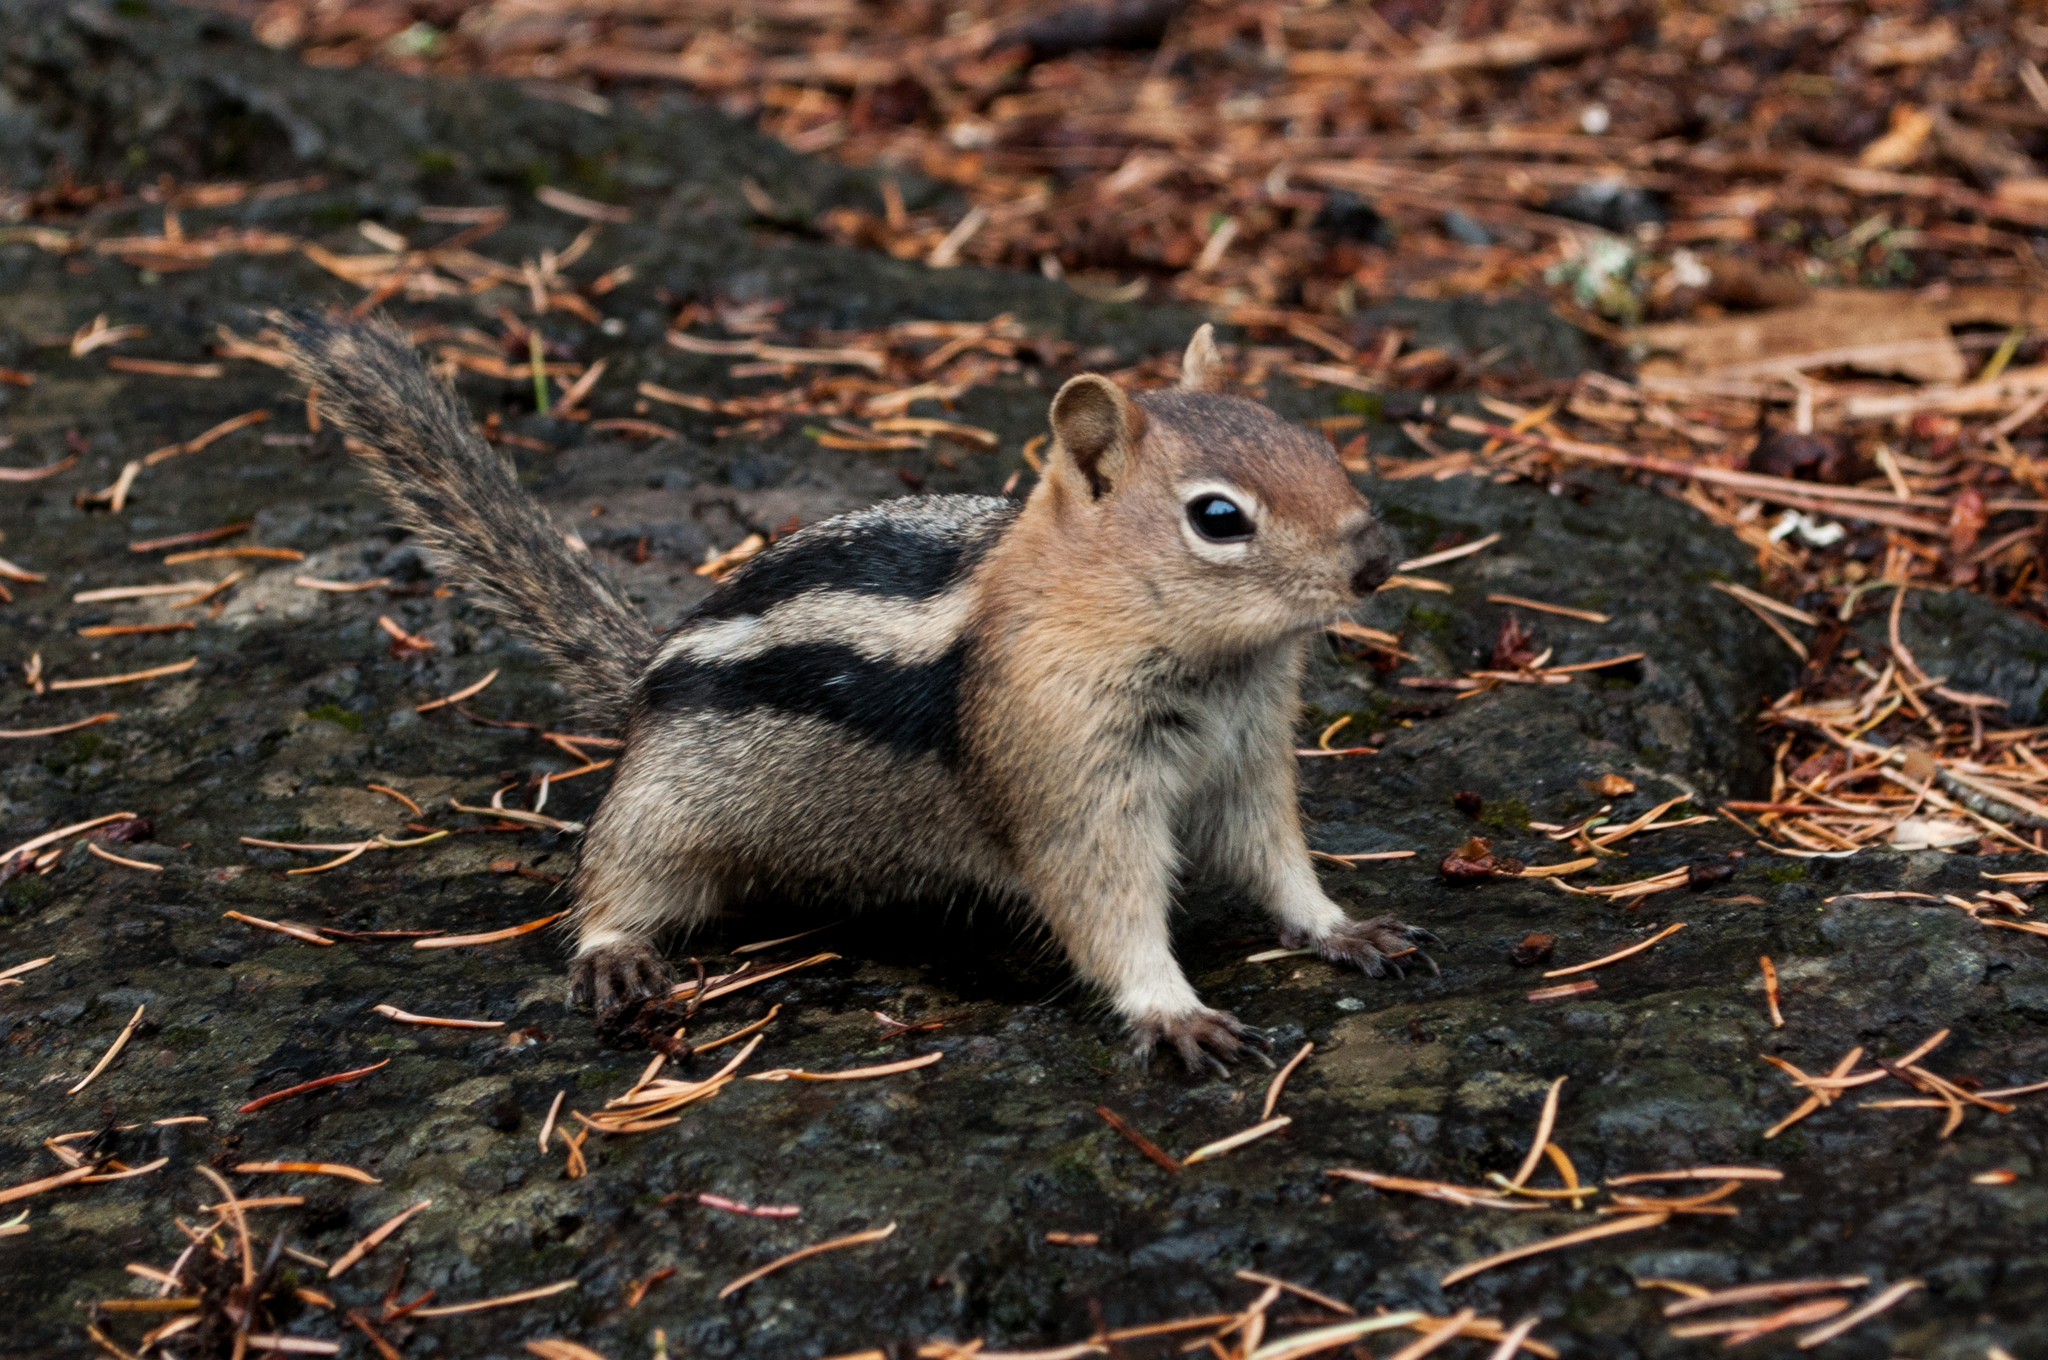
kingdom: Animalia
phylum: Chordata
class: Mammalia
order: Rodentia
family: Sciuridae
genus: Callospermophilus
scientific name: Callospermophilus lateralis
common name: Golden-mantled ground squirrel
